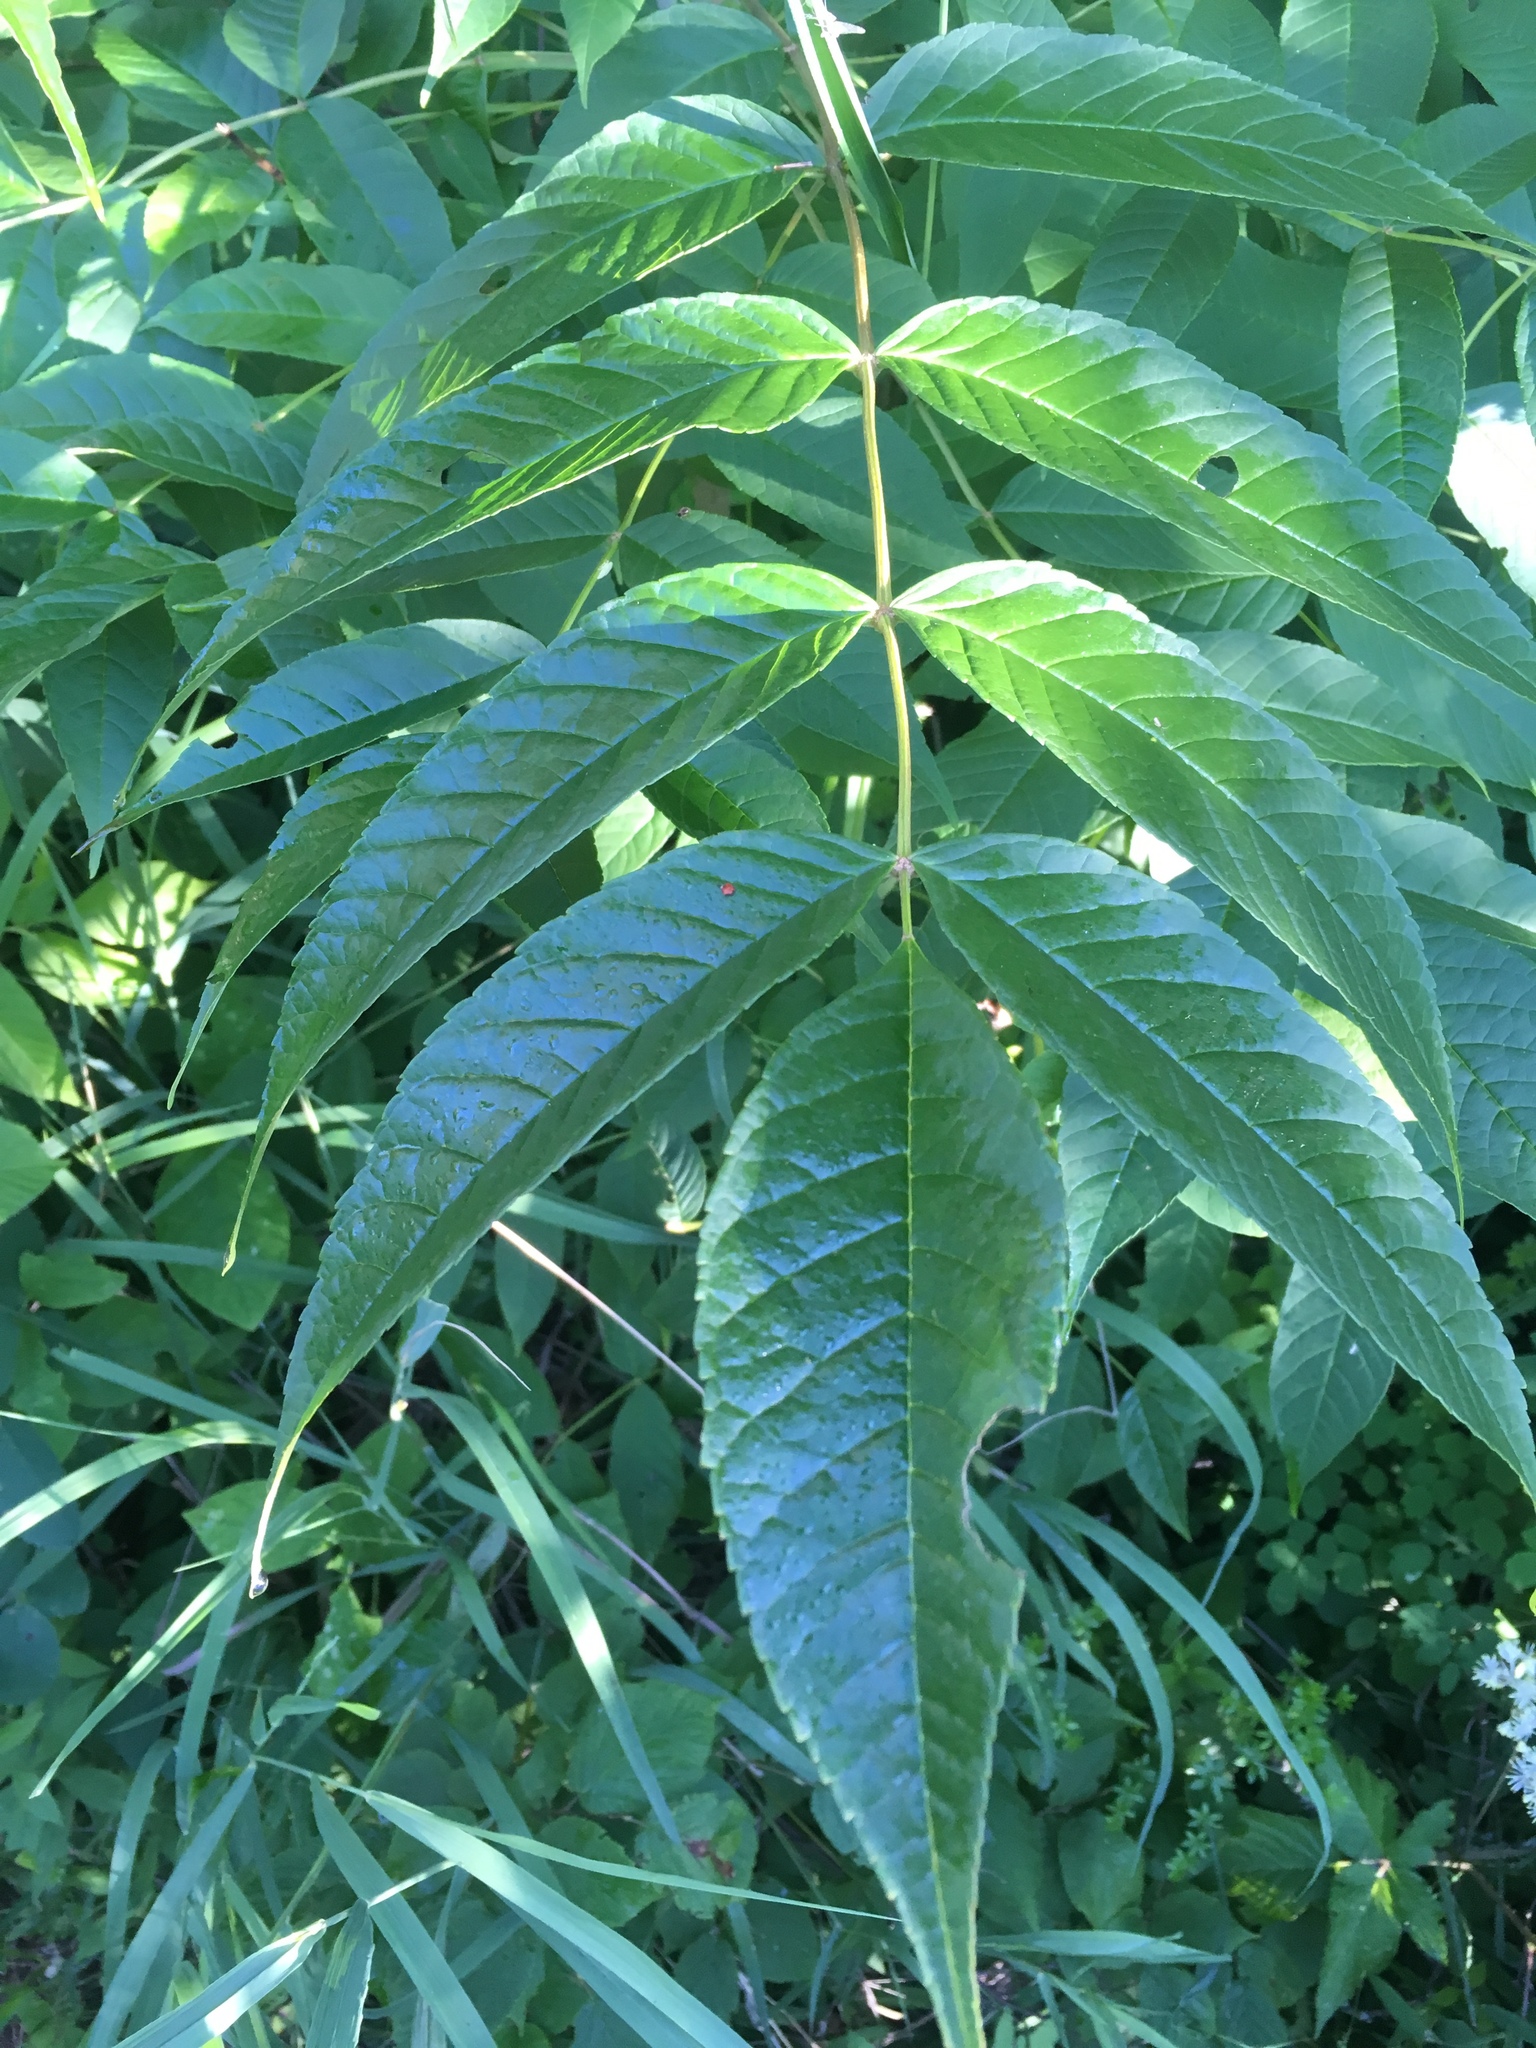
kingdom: Plantae
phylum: Tracheophyta
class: Magnoliopsida
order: Lamiales
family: Oleaceae
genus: Fraxinus
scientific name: Fraxinus nigra
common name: Black ash
